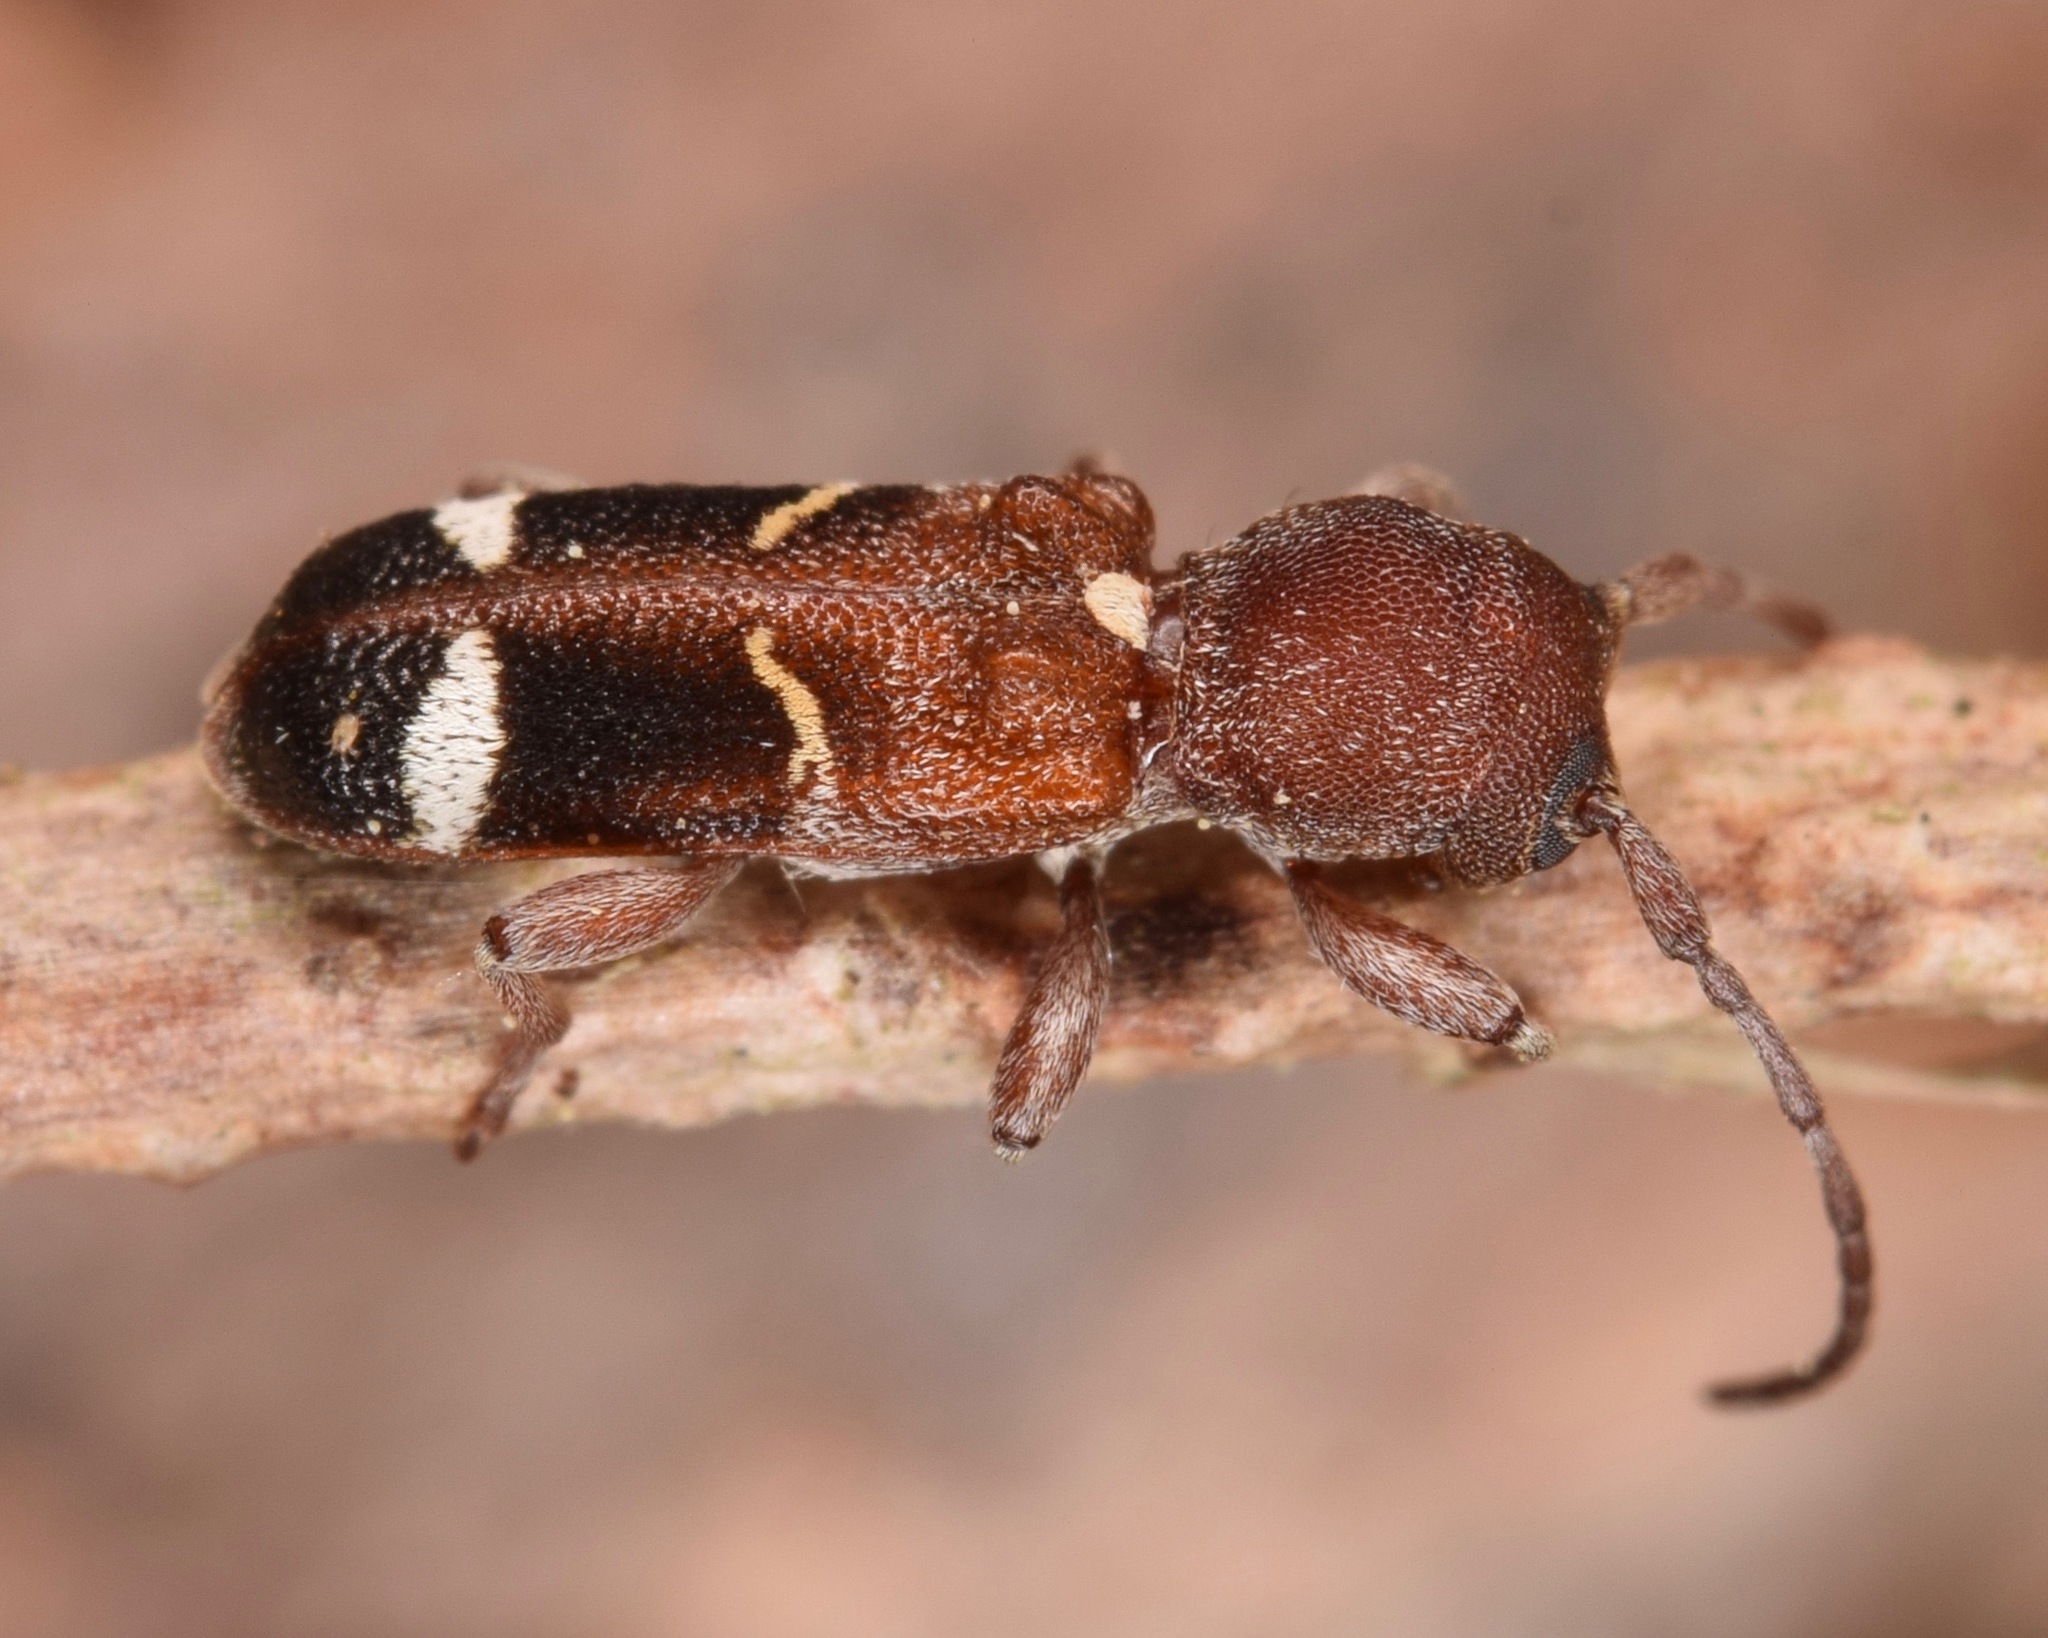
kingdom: Animalia
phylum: Arthropoda
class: Insecta
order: Coleoptera
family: Cerambycidae
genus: Psenocerus
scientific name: Psenocerus supernotatus
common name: Currant-tip borer
